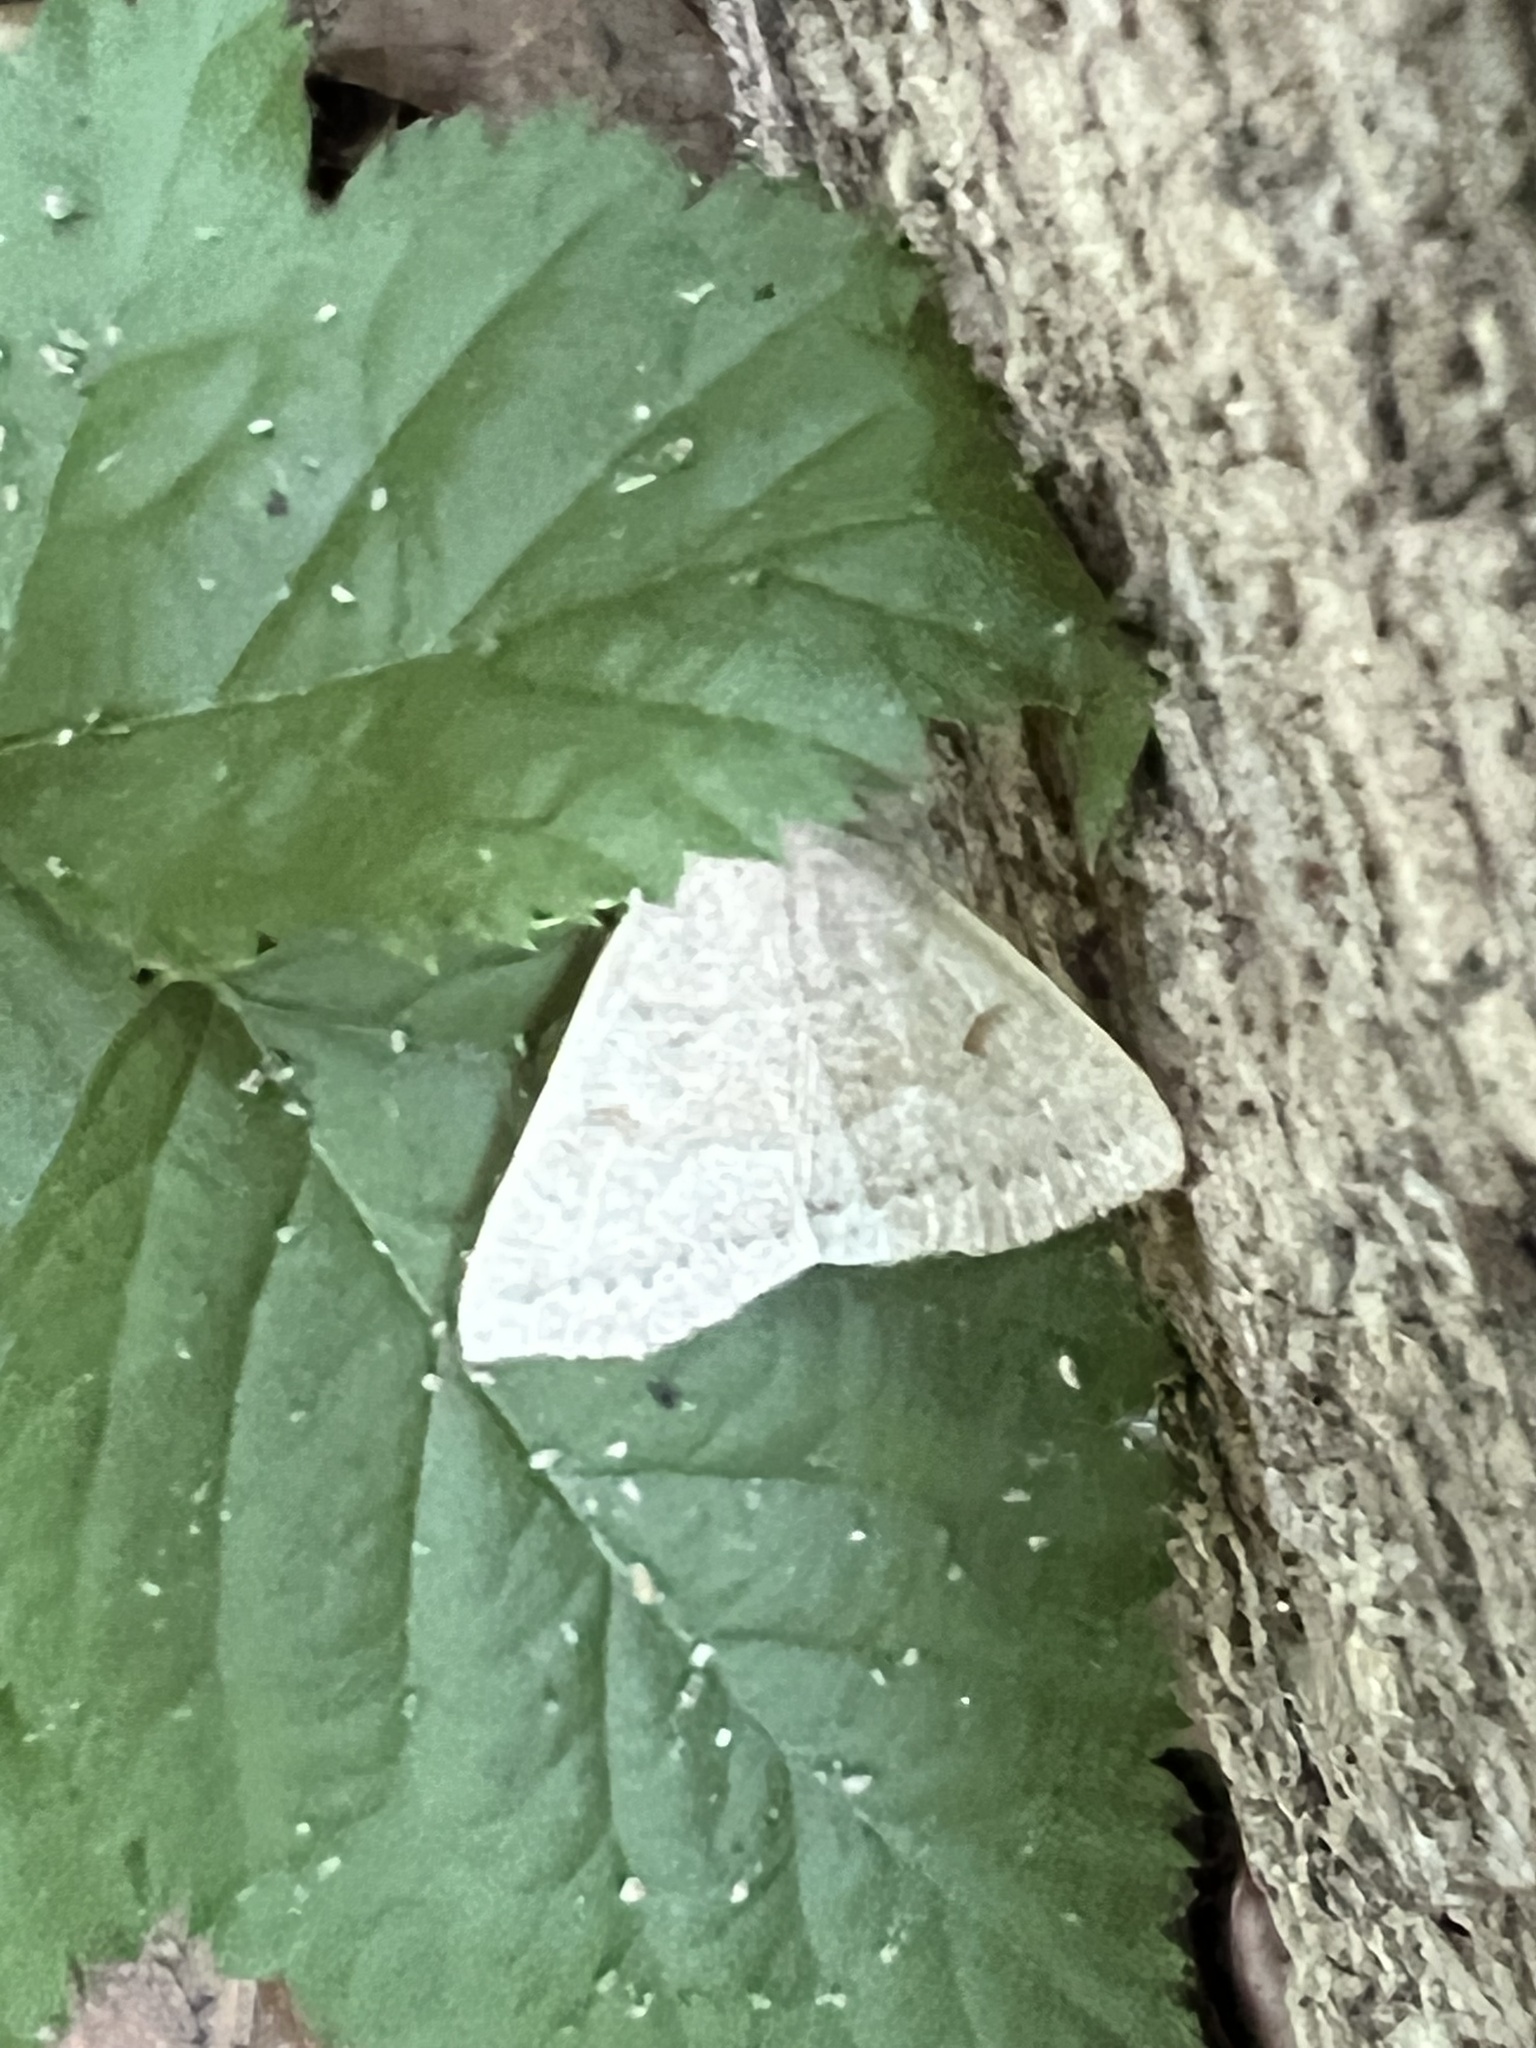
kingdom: Animalia
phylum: Arthropoda
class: Insecta
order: Lepidoptera
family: Erebidae
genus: Macrochilo
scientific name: Macrochilo morbidalis
